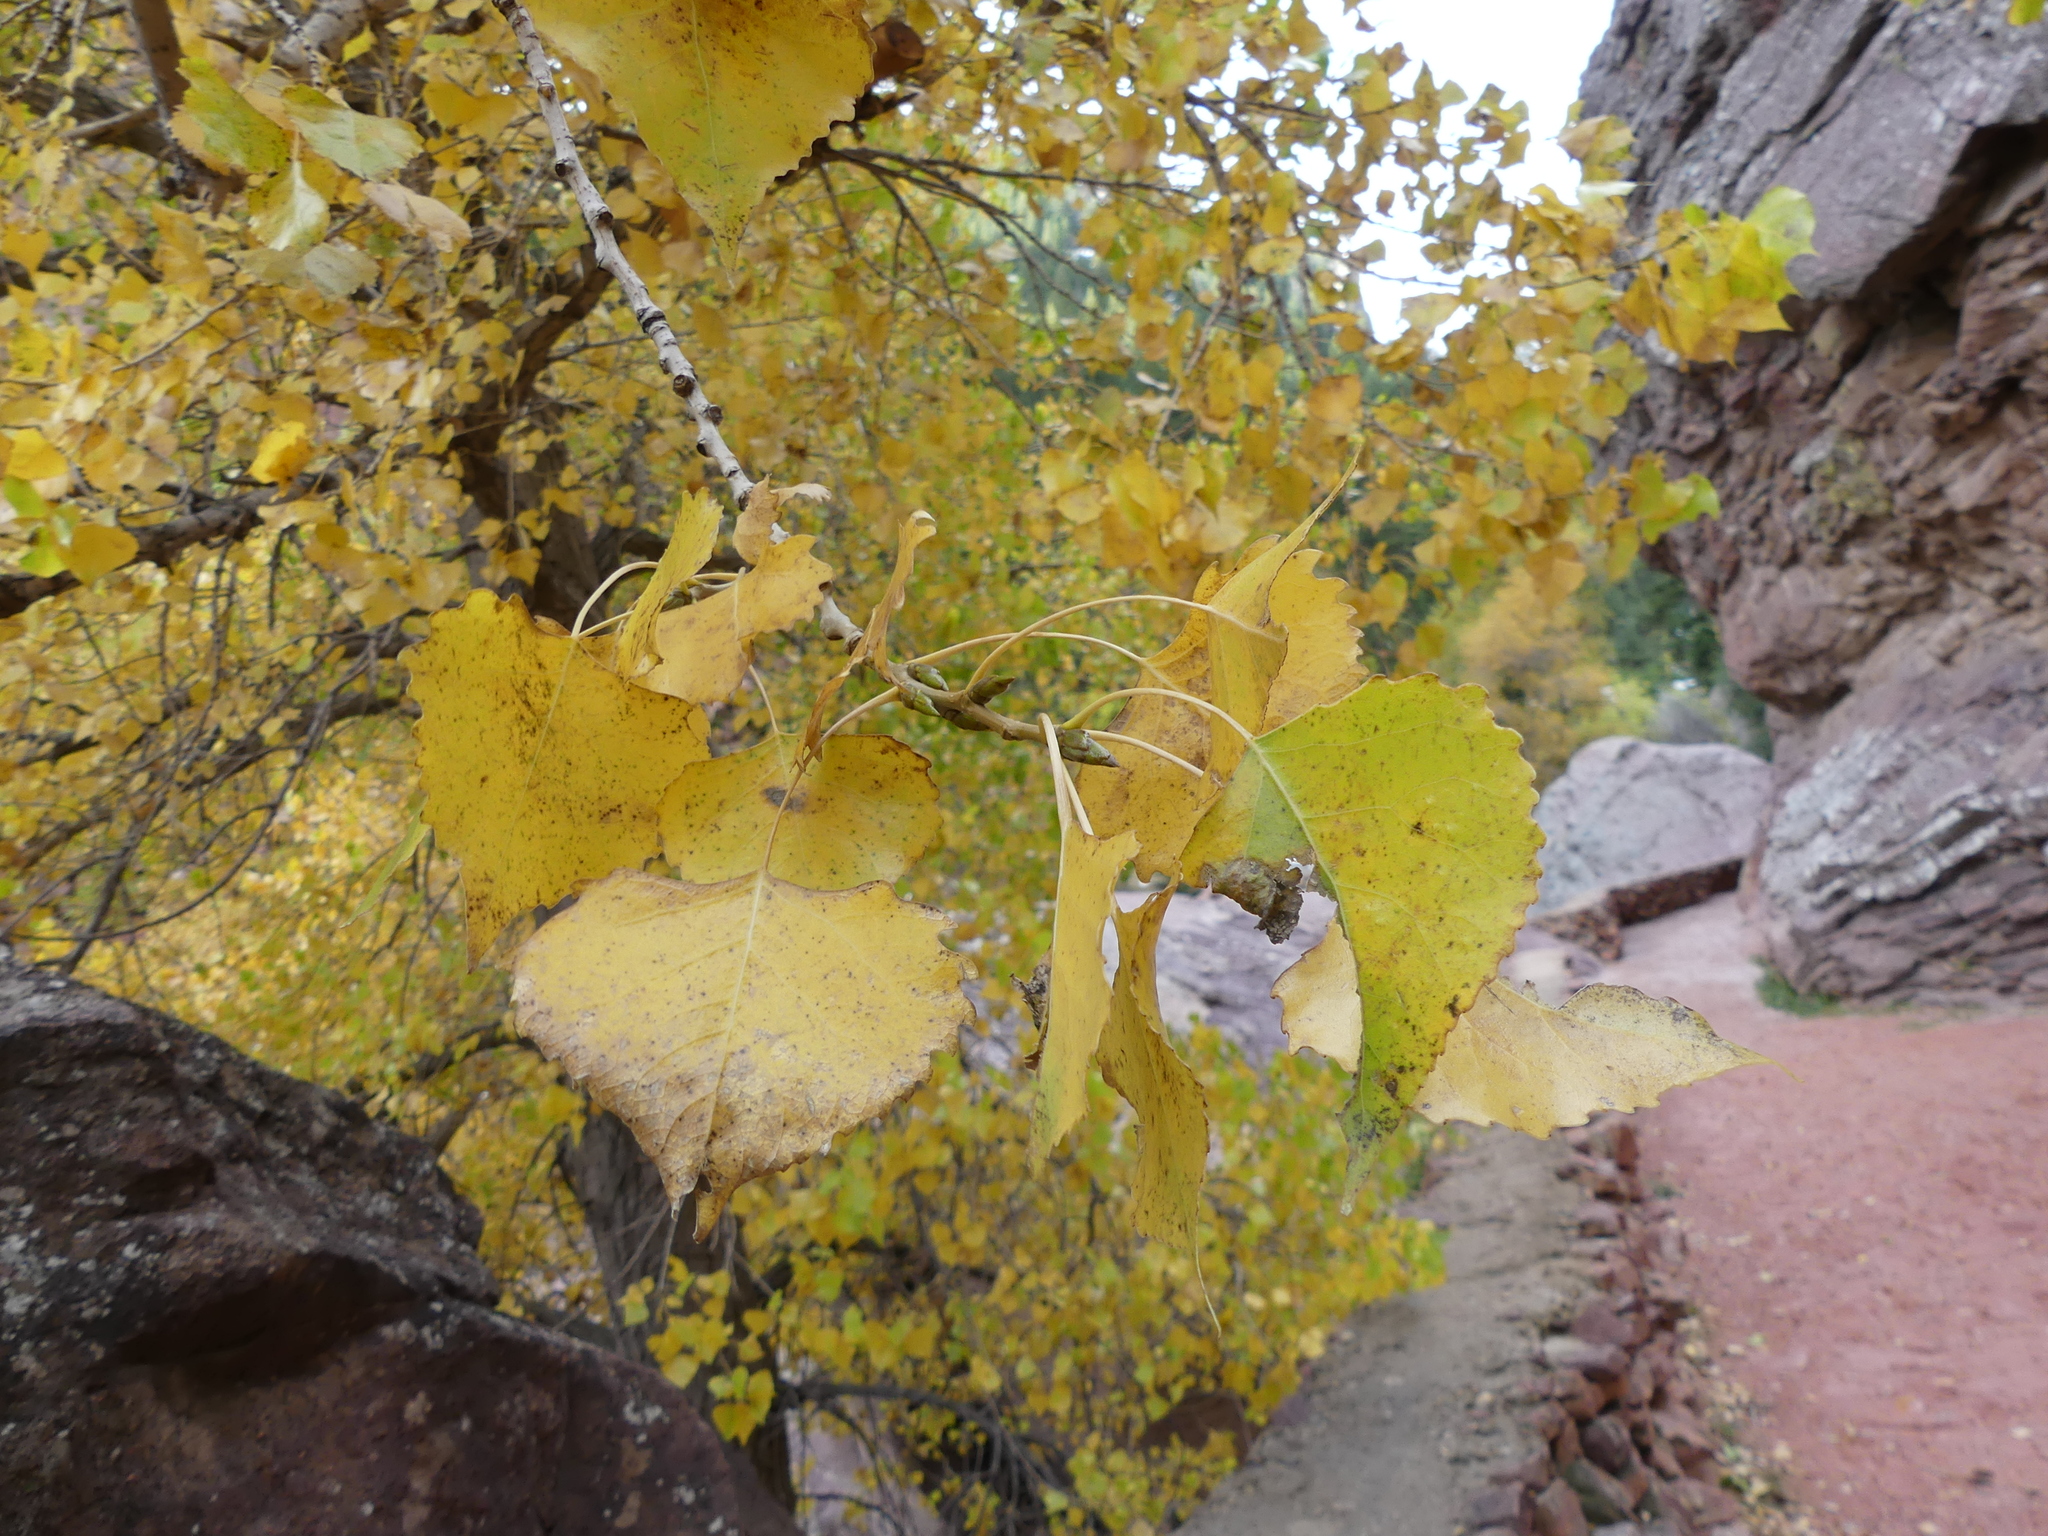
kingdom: Plantae
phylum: Tracheophyta
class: Magnoliopsida
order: Malpighiales
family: Salicaceae
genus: Populus
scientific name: Populus deltoides
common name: Eastern cottonwood
